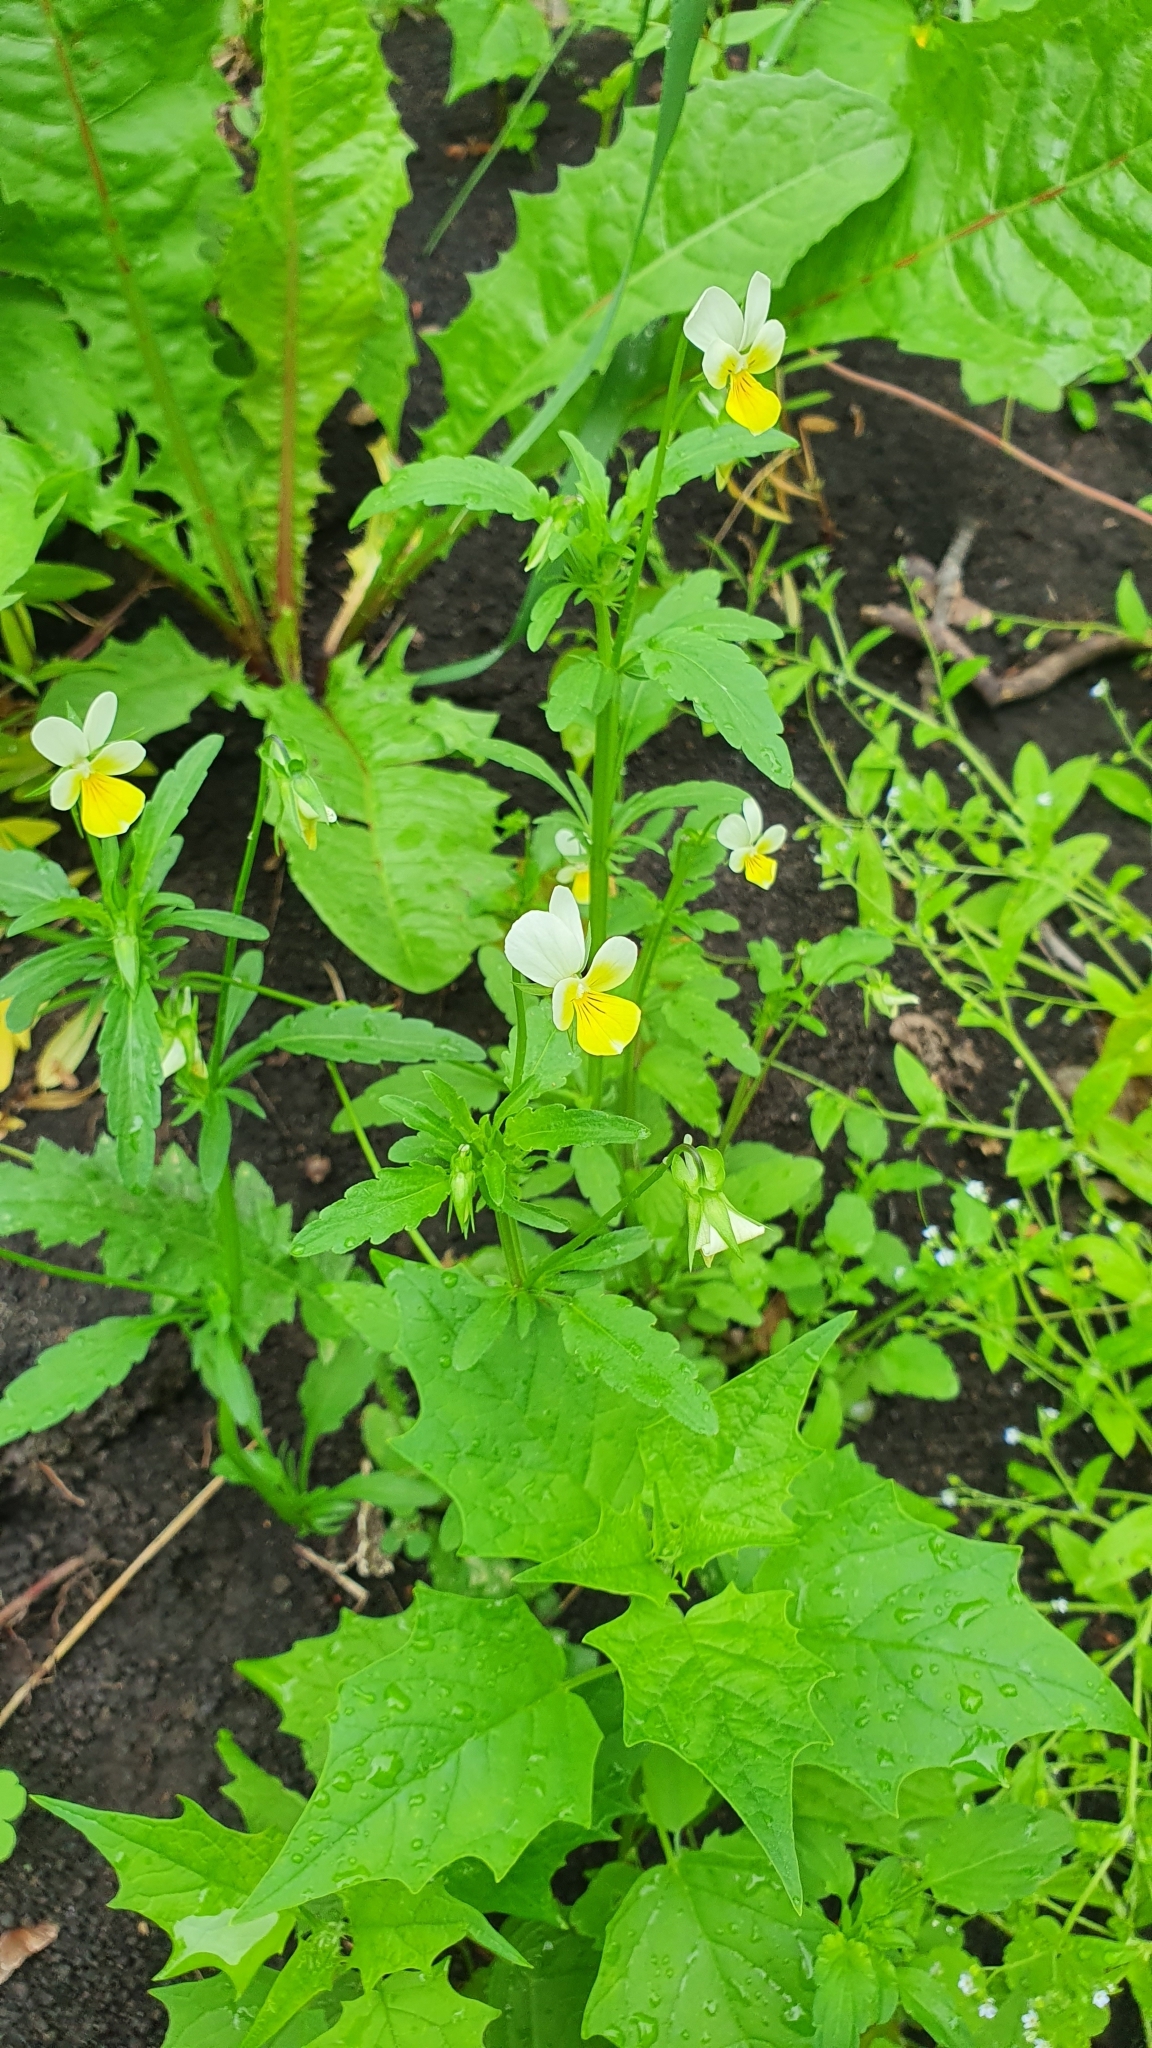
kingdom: Plantae
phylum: Tracheophyta
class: Magnoliopsida
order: Malpighiales
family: Violaceae
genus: Viola
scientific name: Viola arvensis
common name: Field pansy
